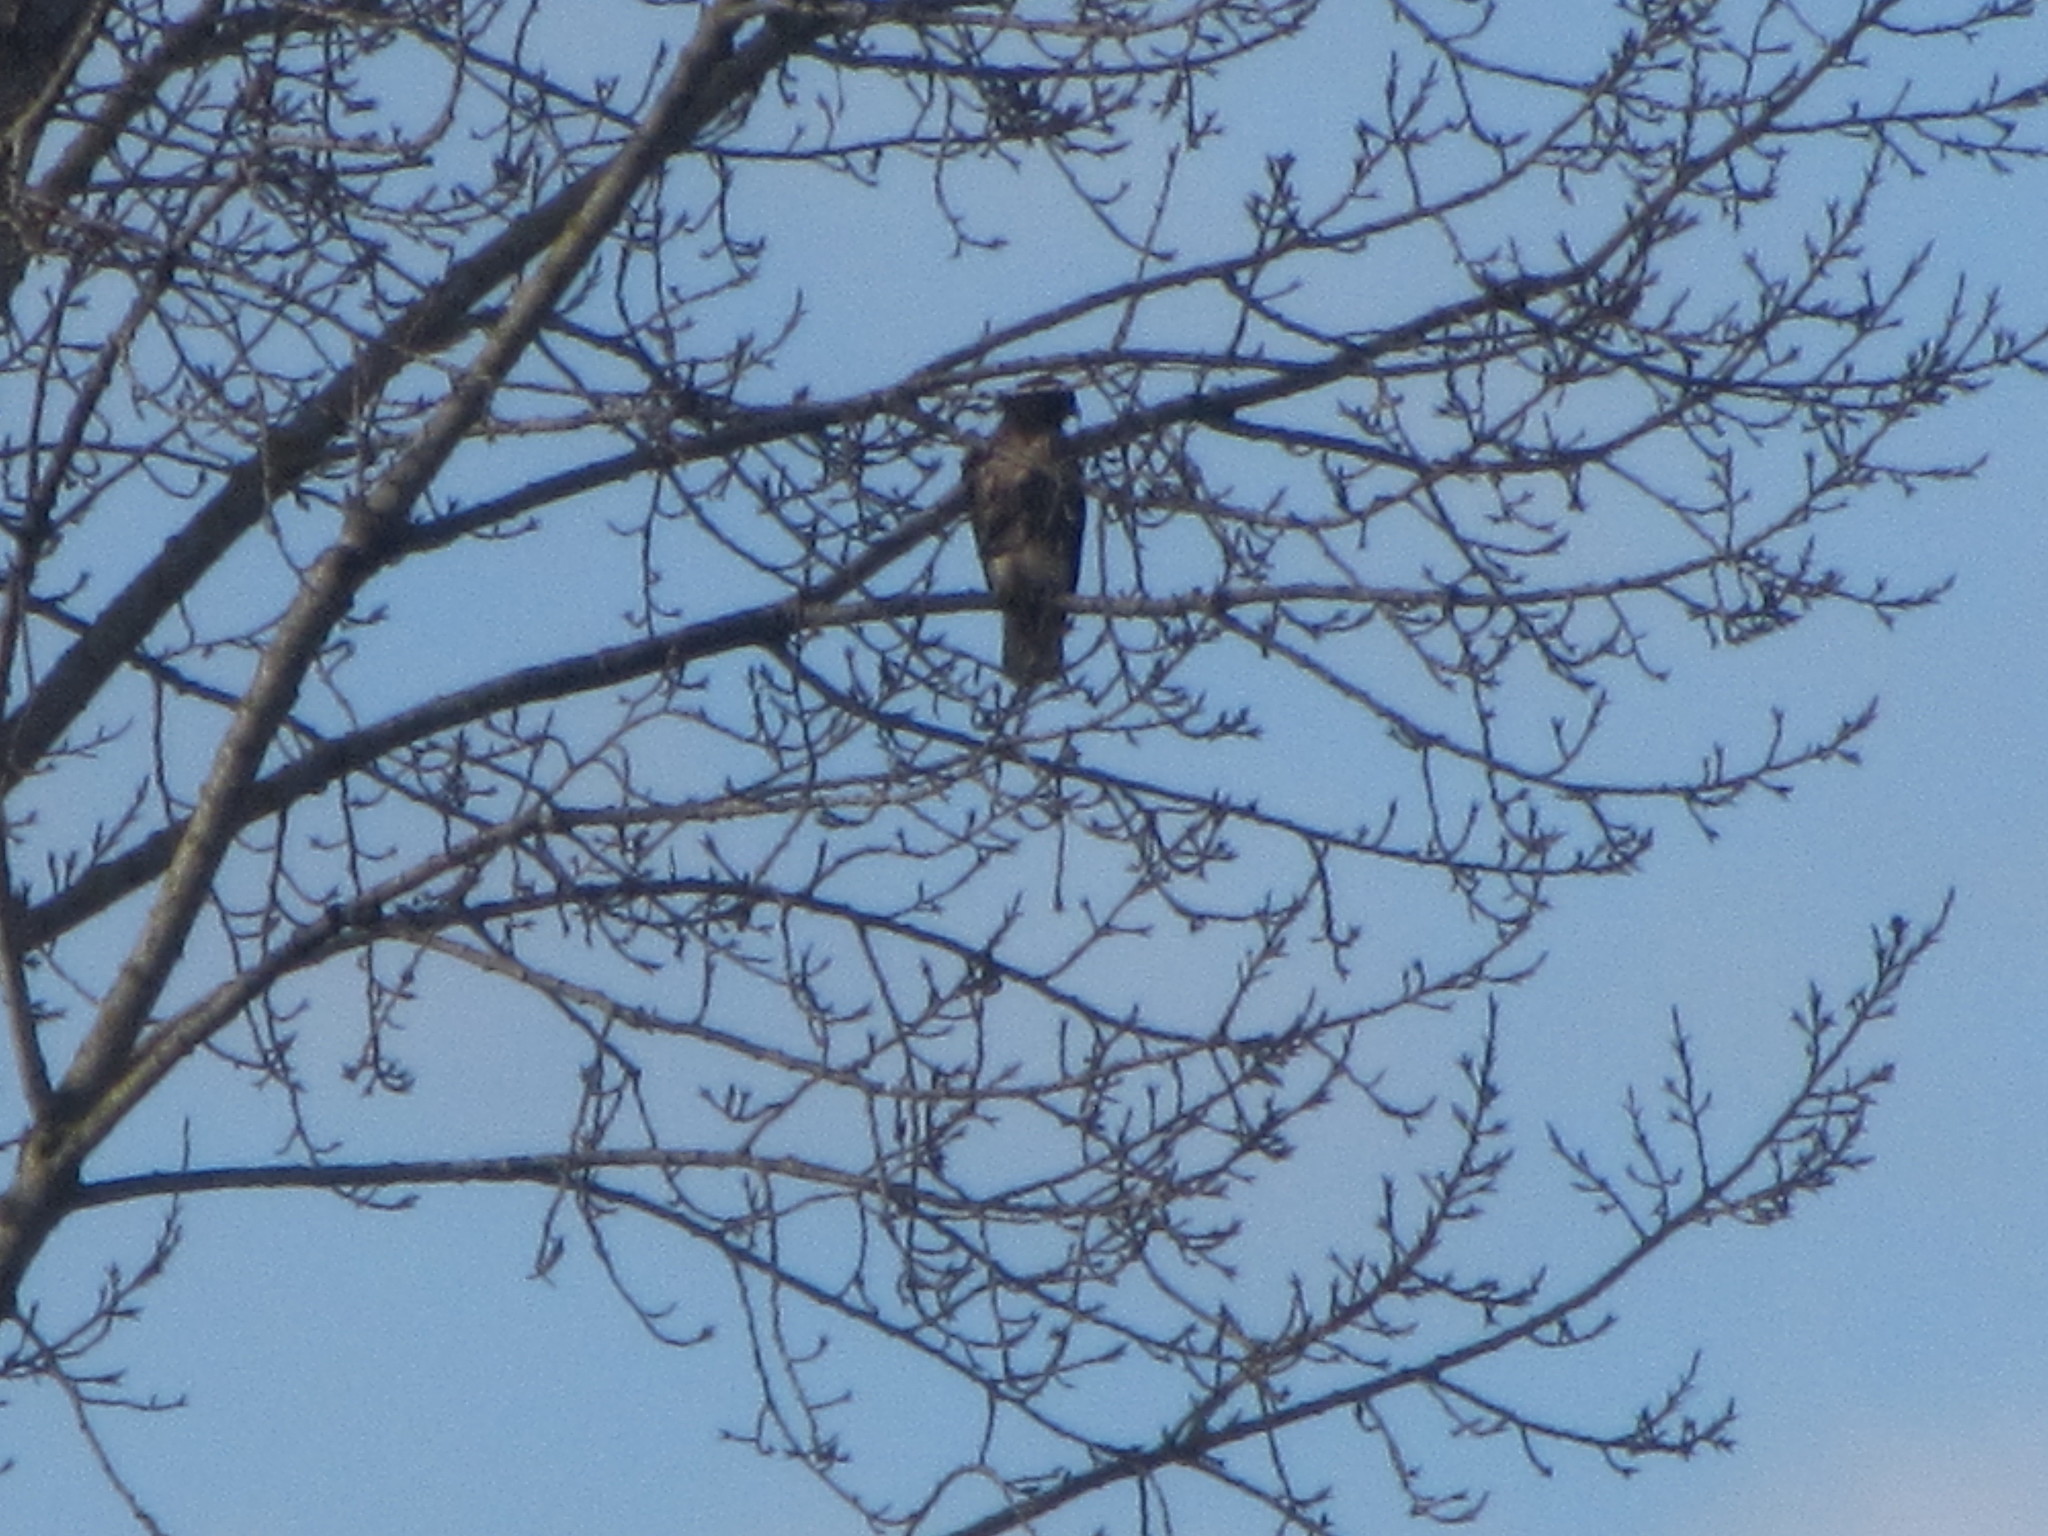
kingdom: Animalia
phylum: Chordata
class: Aves
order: Accipitriformes
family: Accipitridae
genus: Buteo
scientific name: Buteo jamaicensis
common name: Red-tailed hawk
